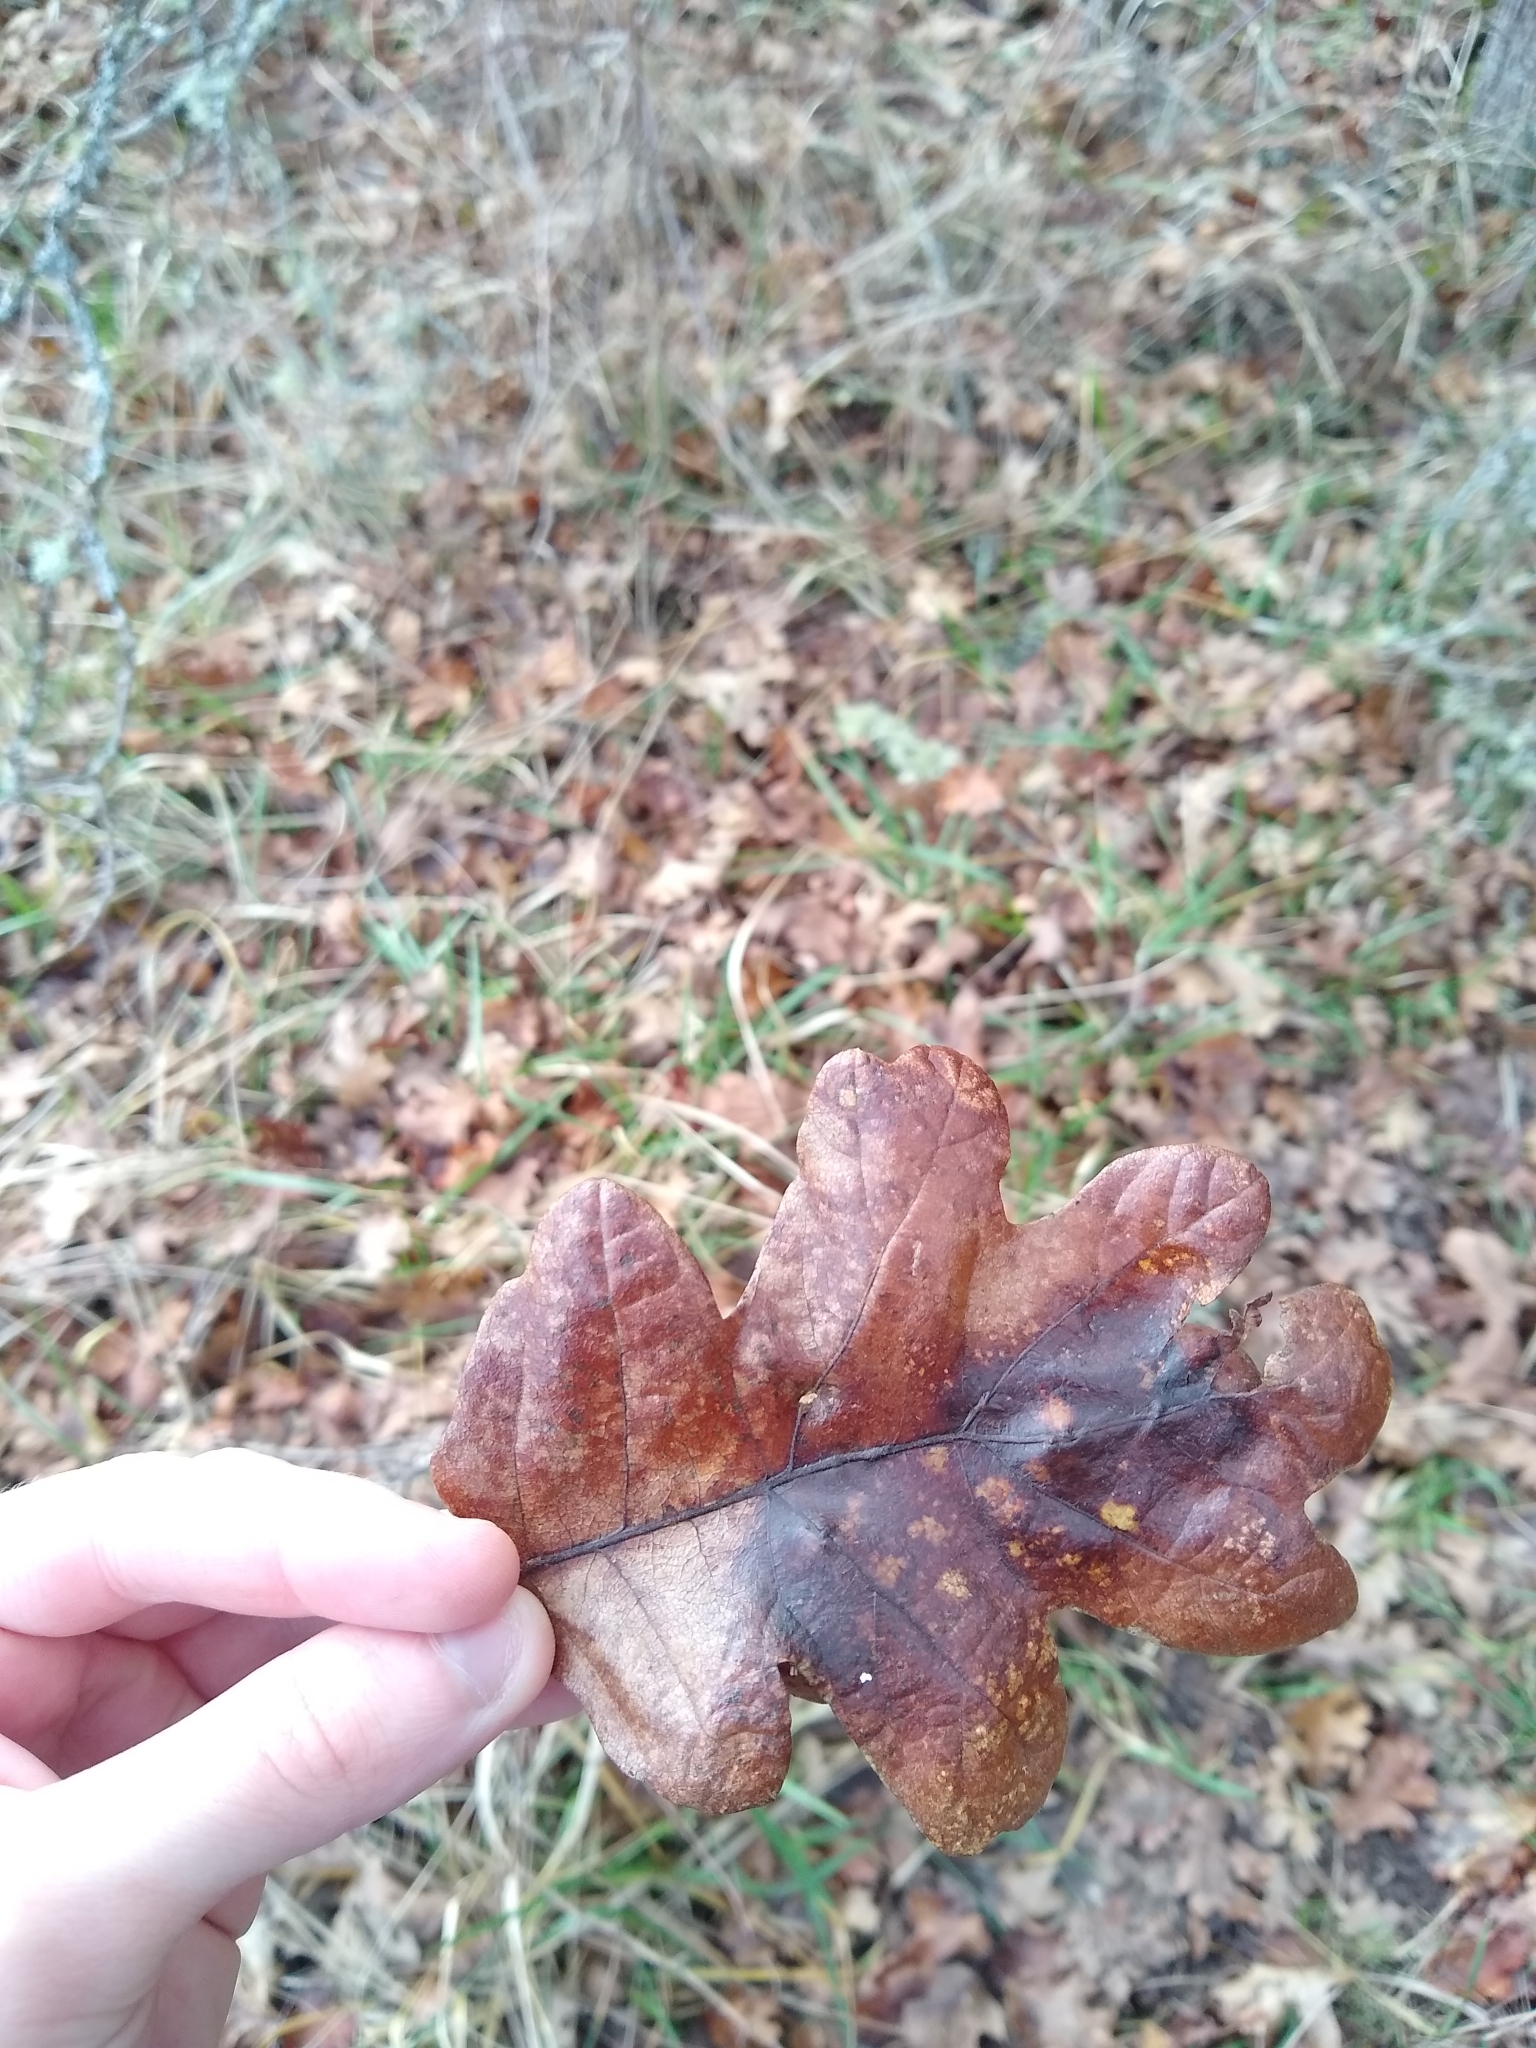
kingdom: Plantae
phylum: Tracheophyta
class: Magnoliopsida
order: Fagales
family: Fagaceae
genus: Quercus
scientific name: Quercus garryana
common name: Garry oak
